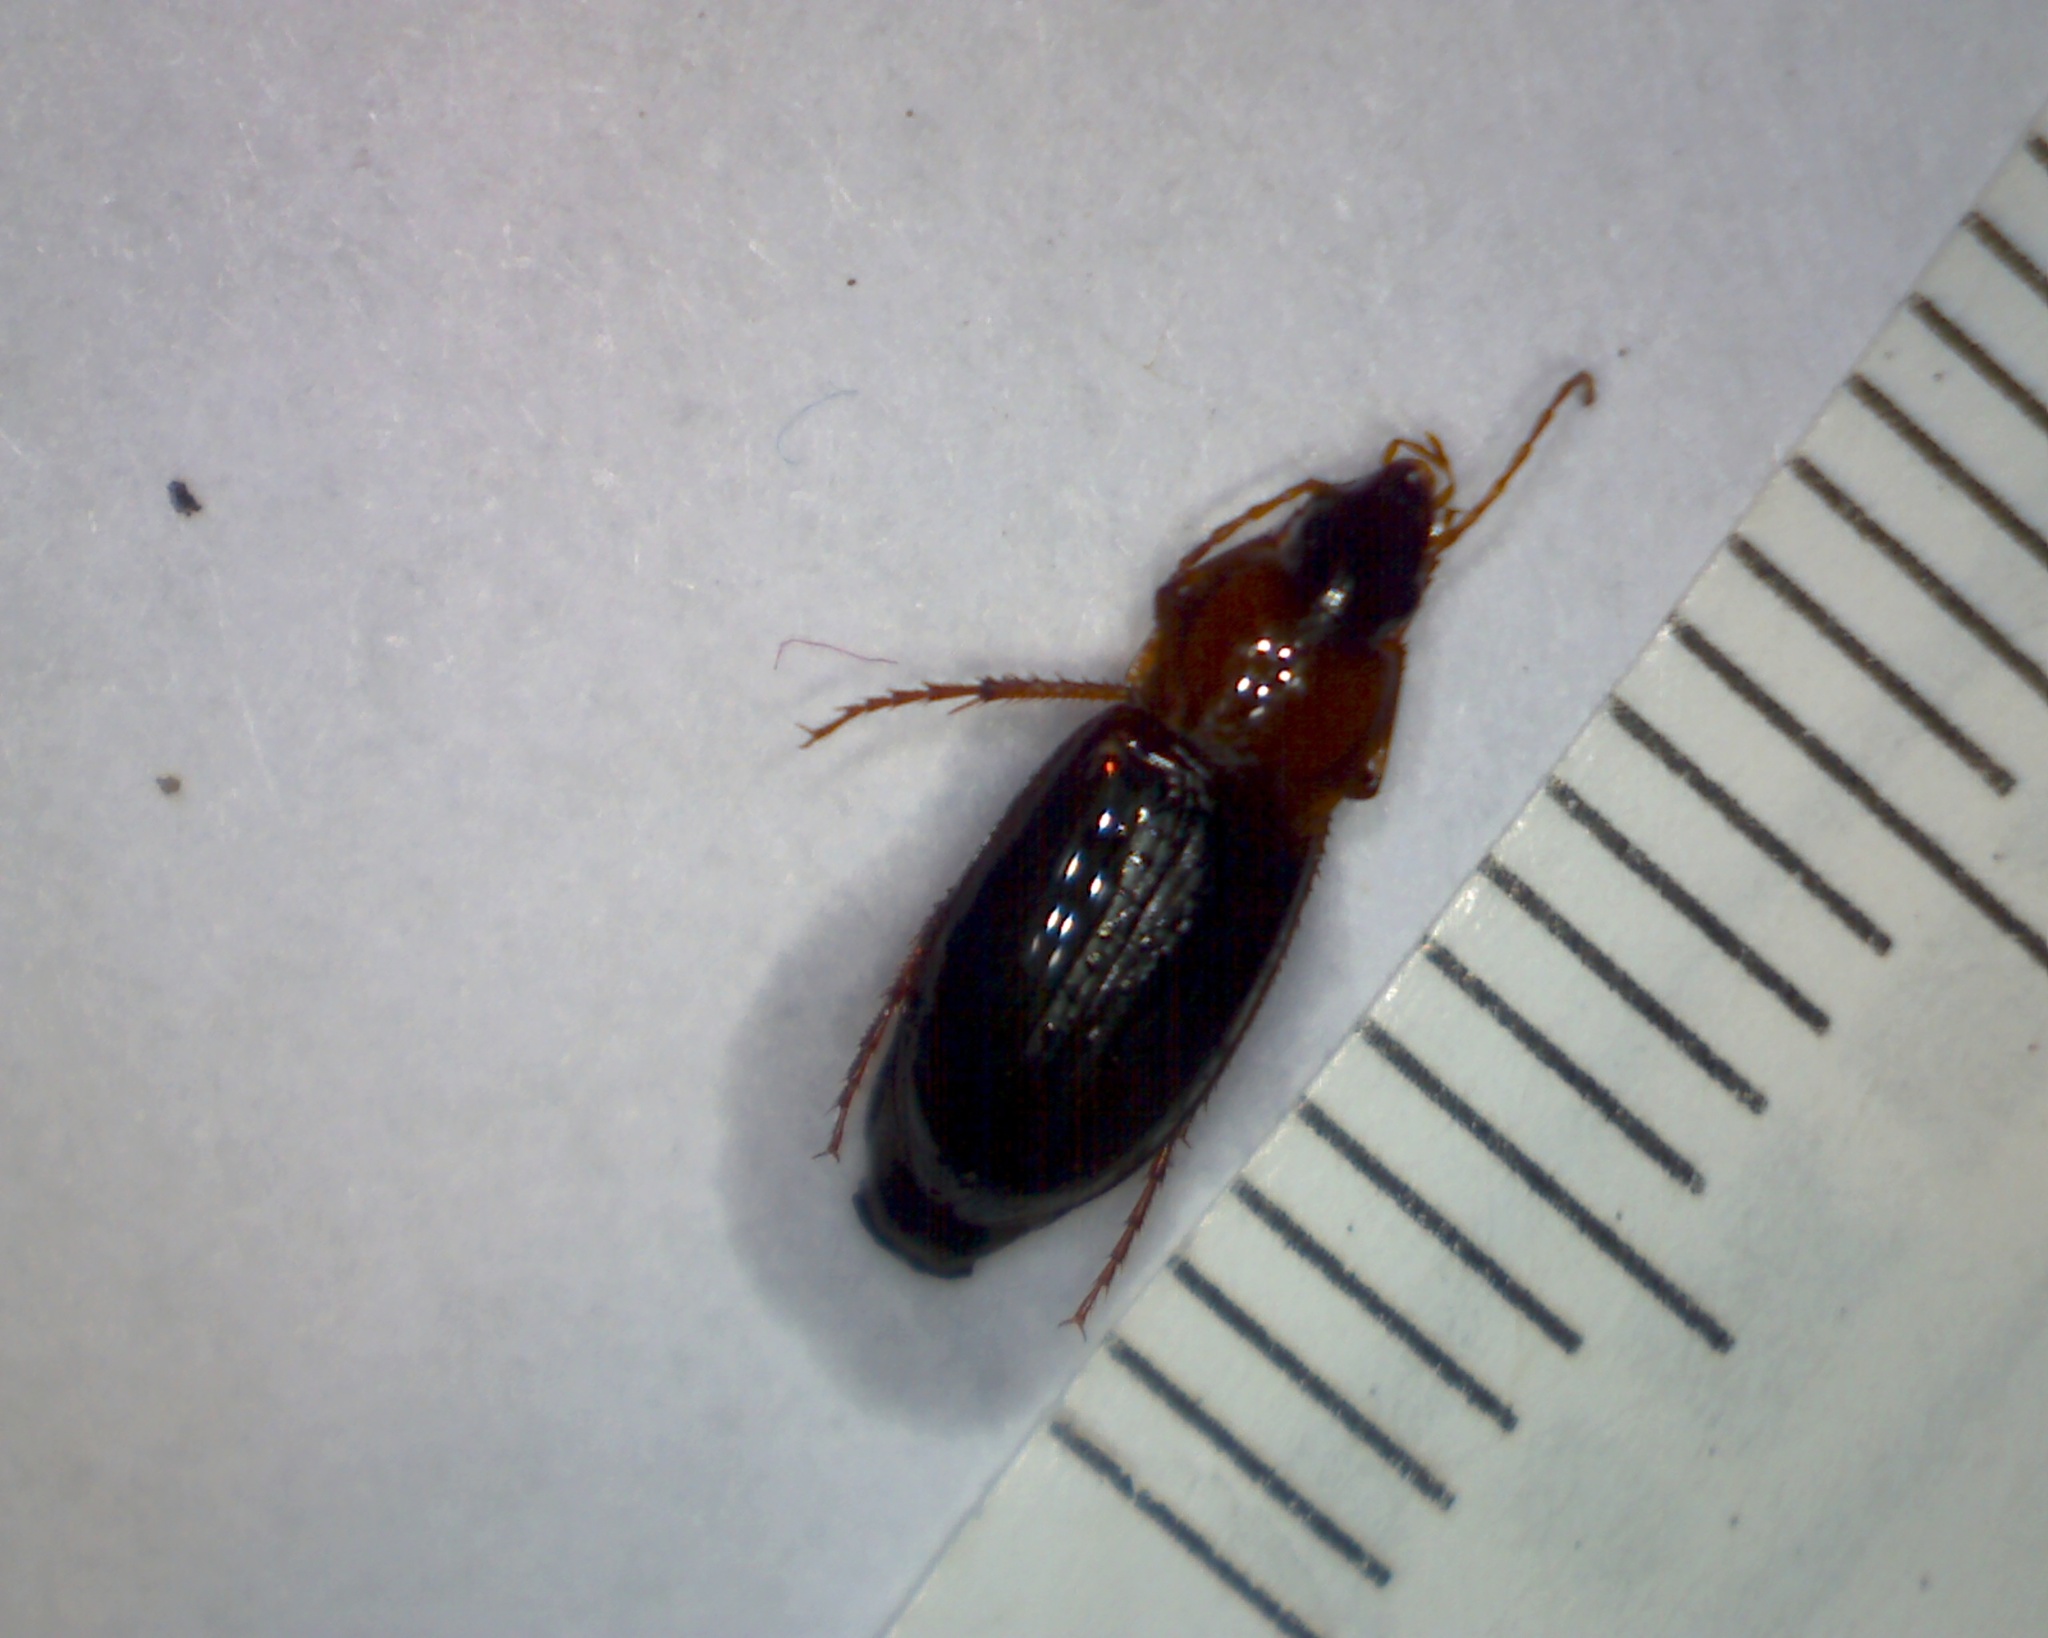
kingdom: Animalia
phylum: Arthropoda
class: Insecta
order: Coleoptera
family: Carabidae
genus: Calathus
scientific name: Calathus melanocephalus
